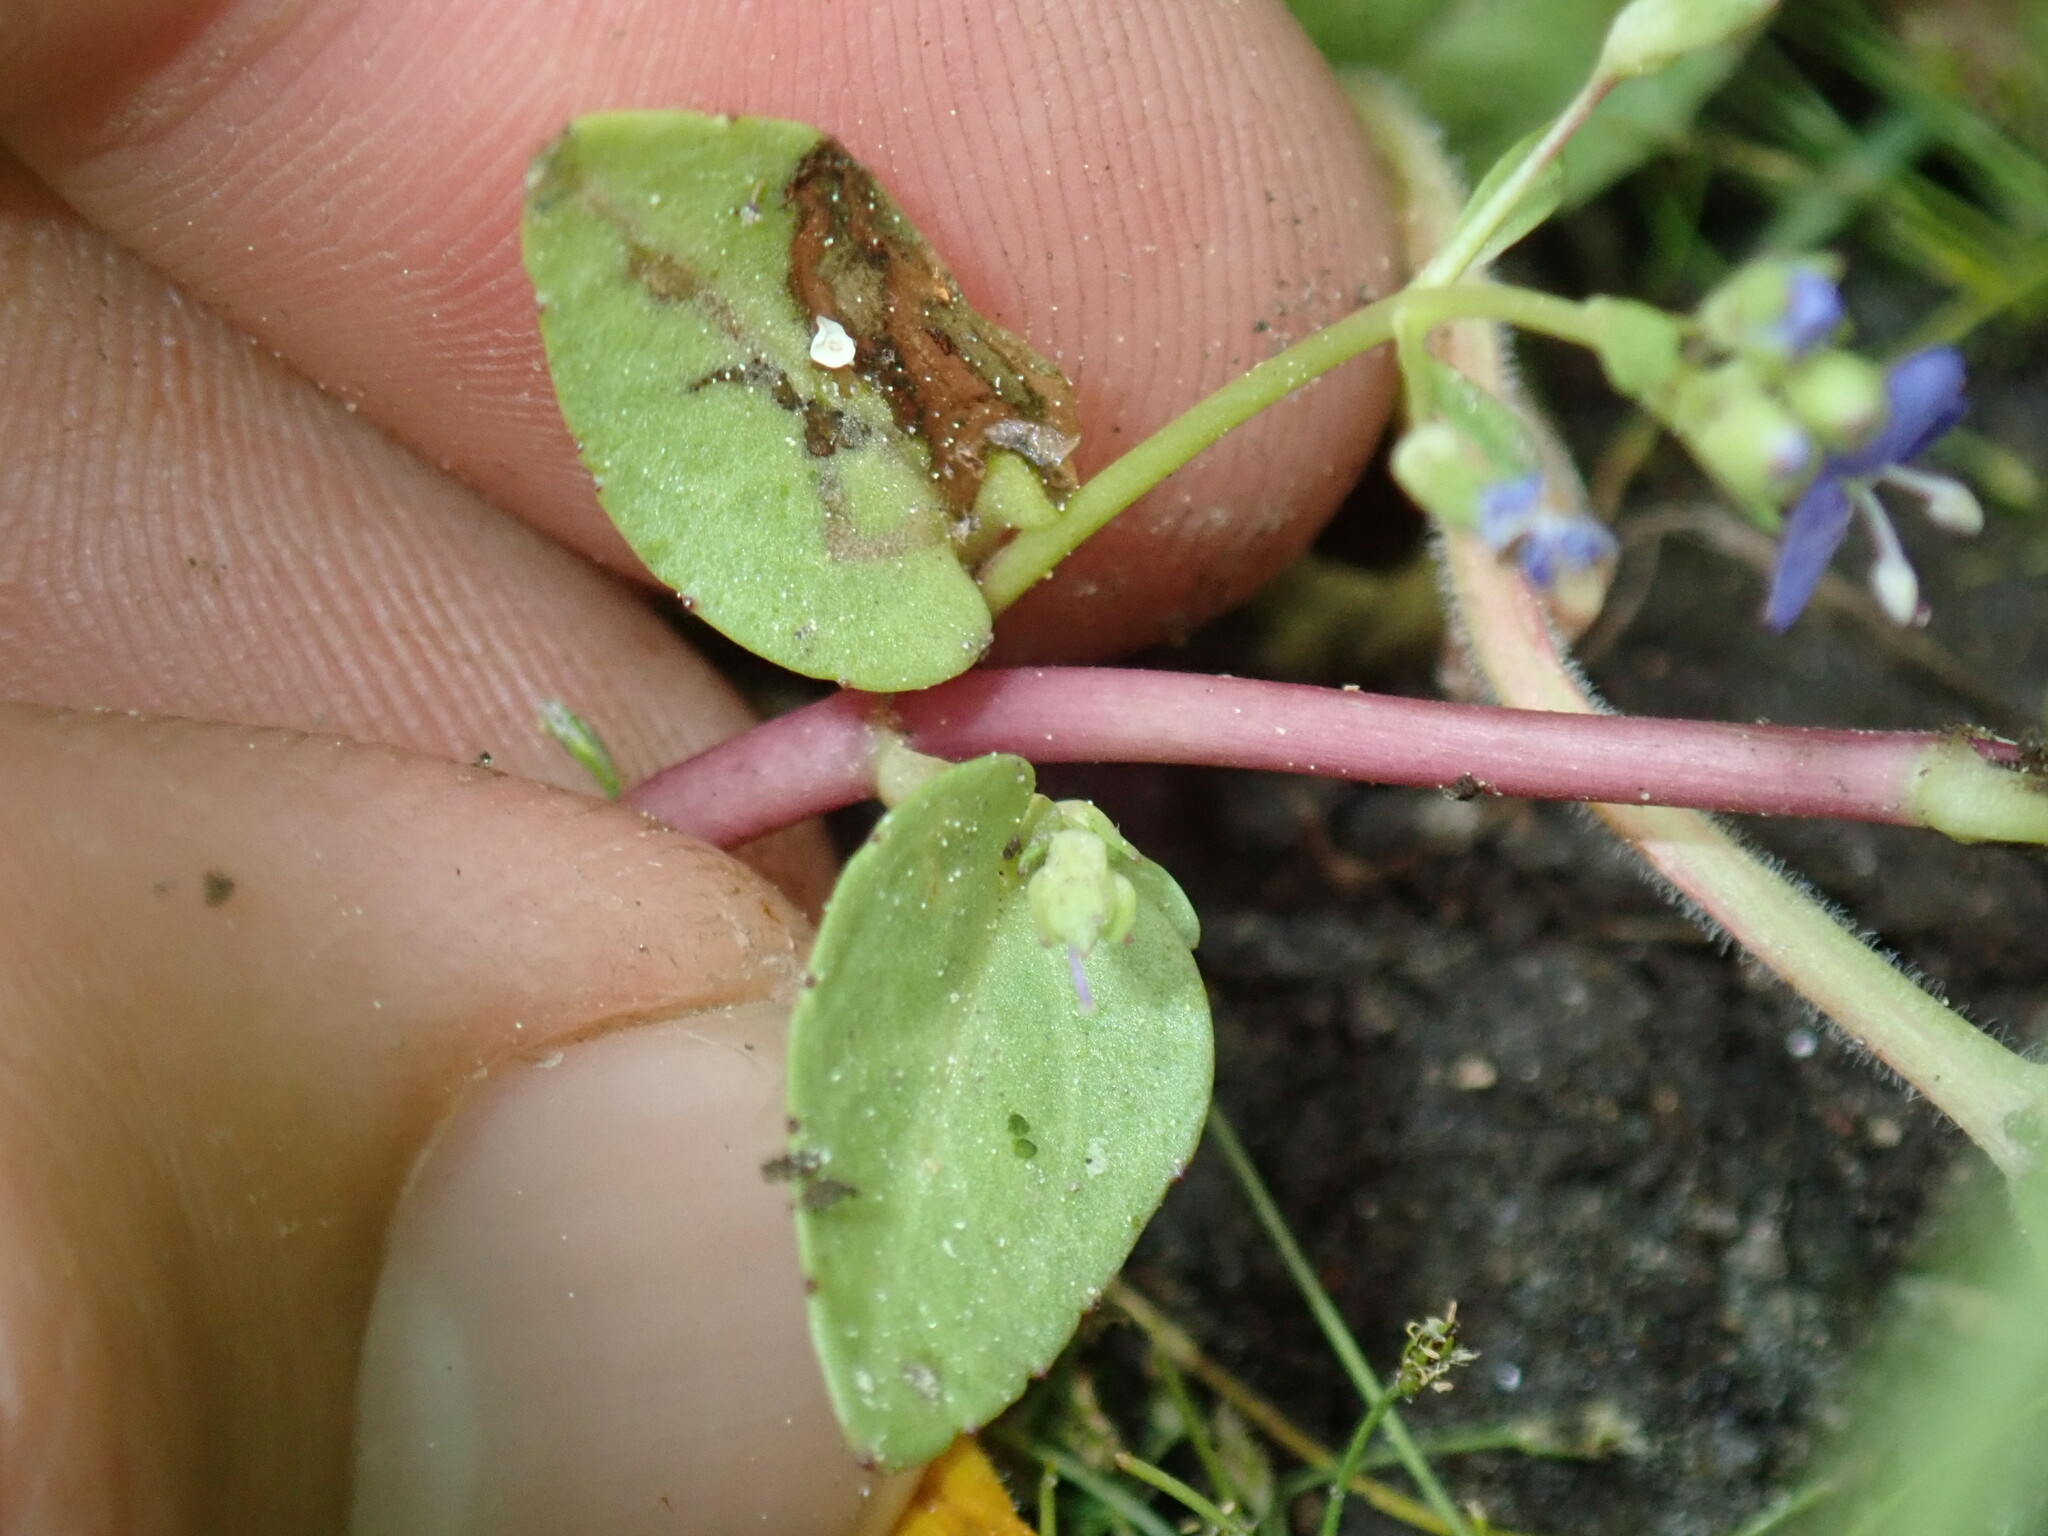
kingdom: Plantae
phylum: Tracheophyta
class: Magnoliopsida
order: Lamiales
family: Plantaginaceae
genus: Veronica
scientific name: Veronica americana
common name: American brooklime
